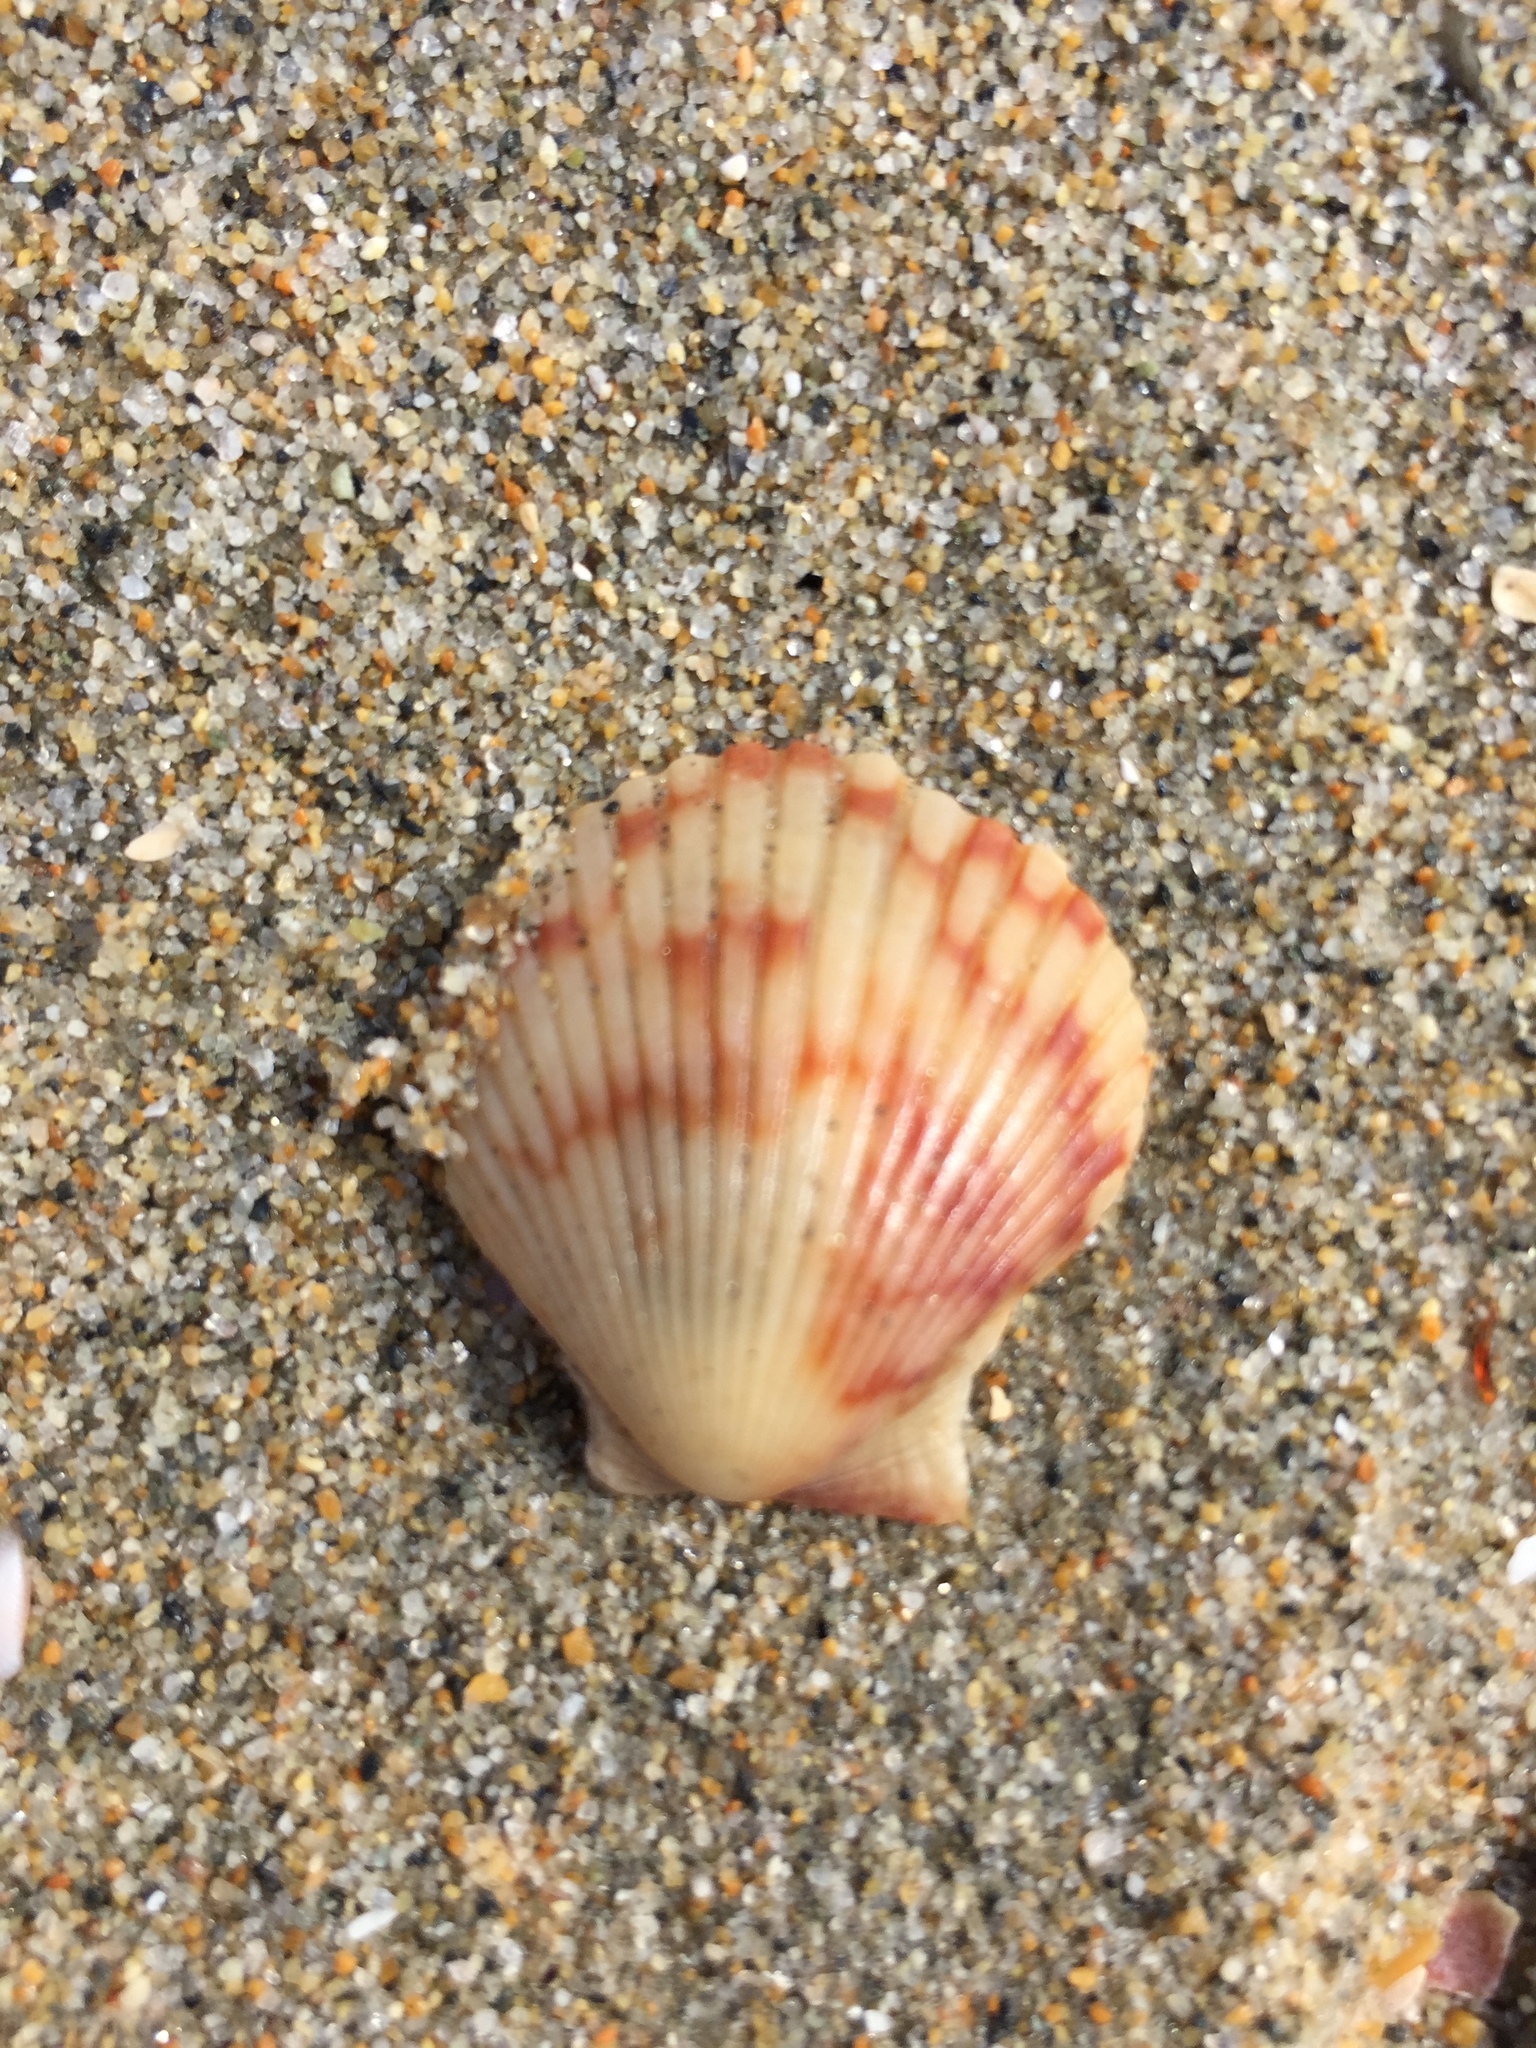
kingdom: Animalia
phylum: Mollusca
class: Bivalvia
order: Pectinida
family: Pectinidae
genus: Argopecten
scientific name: Argopecten ventricosus
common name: Catarina scallop
